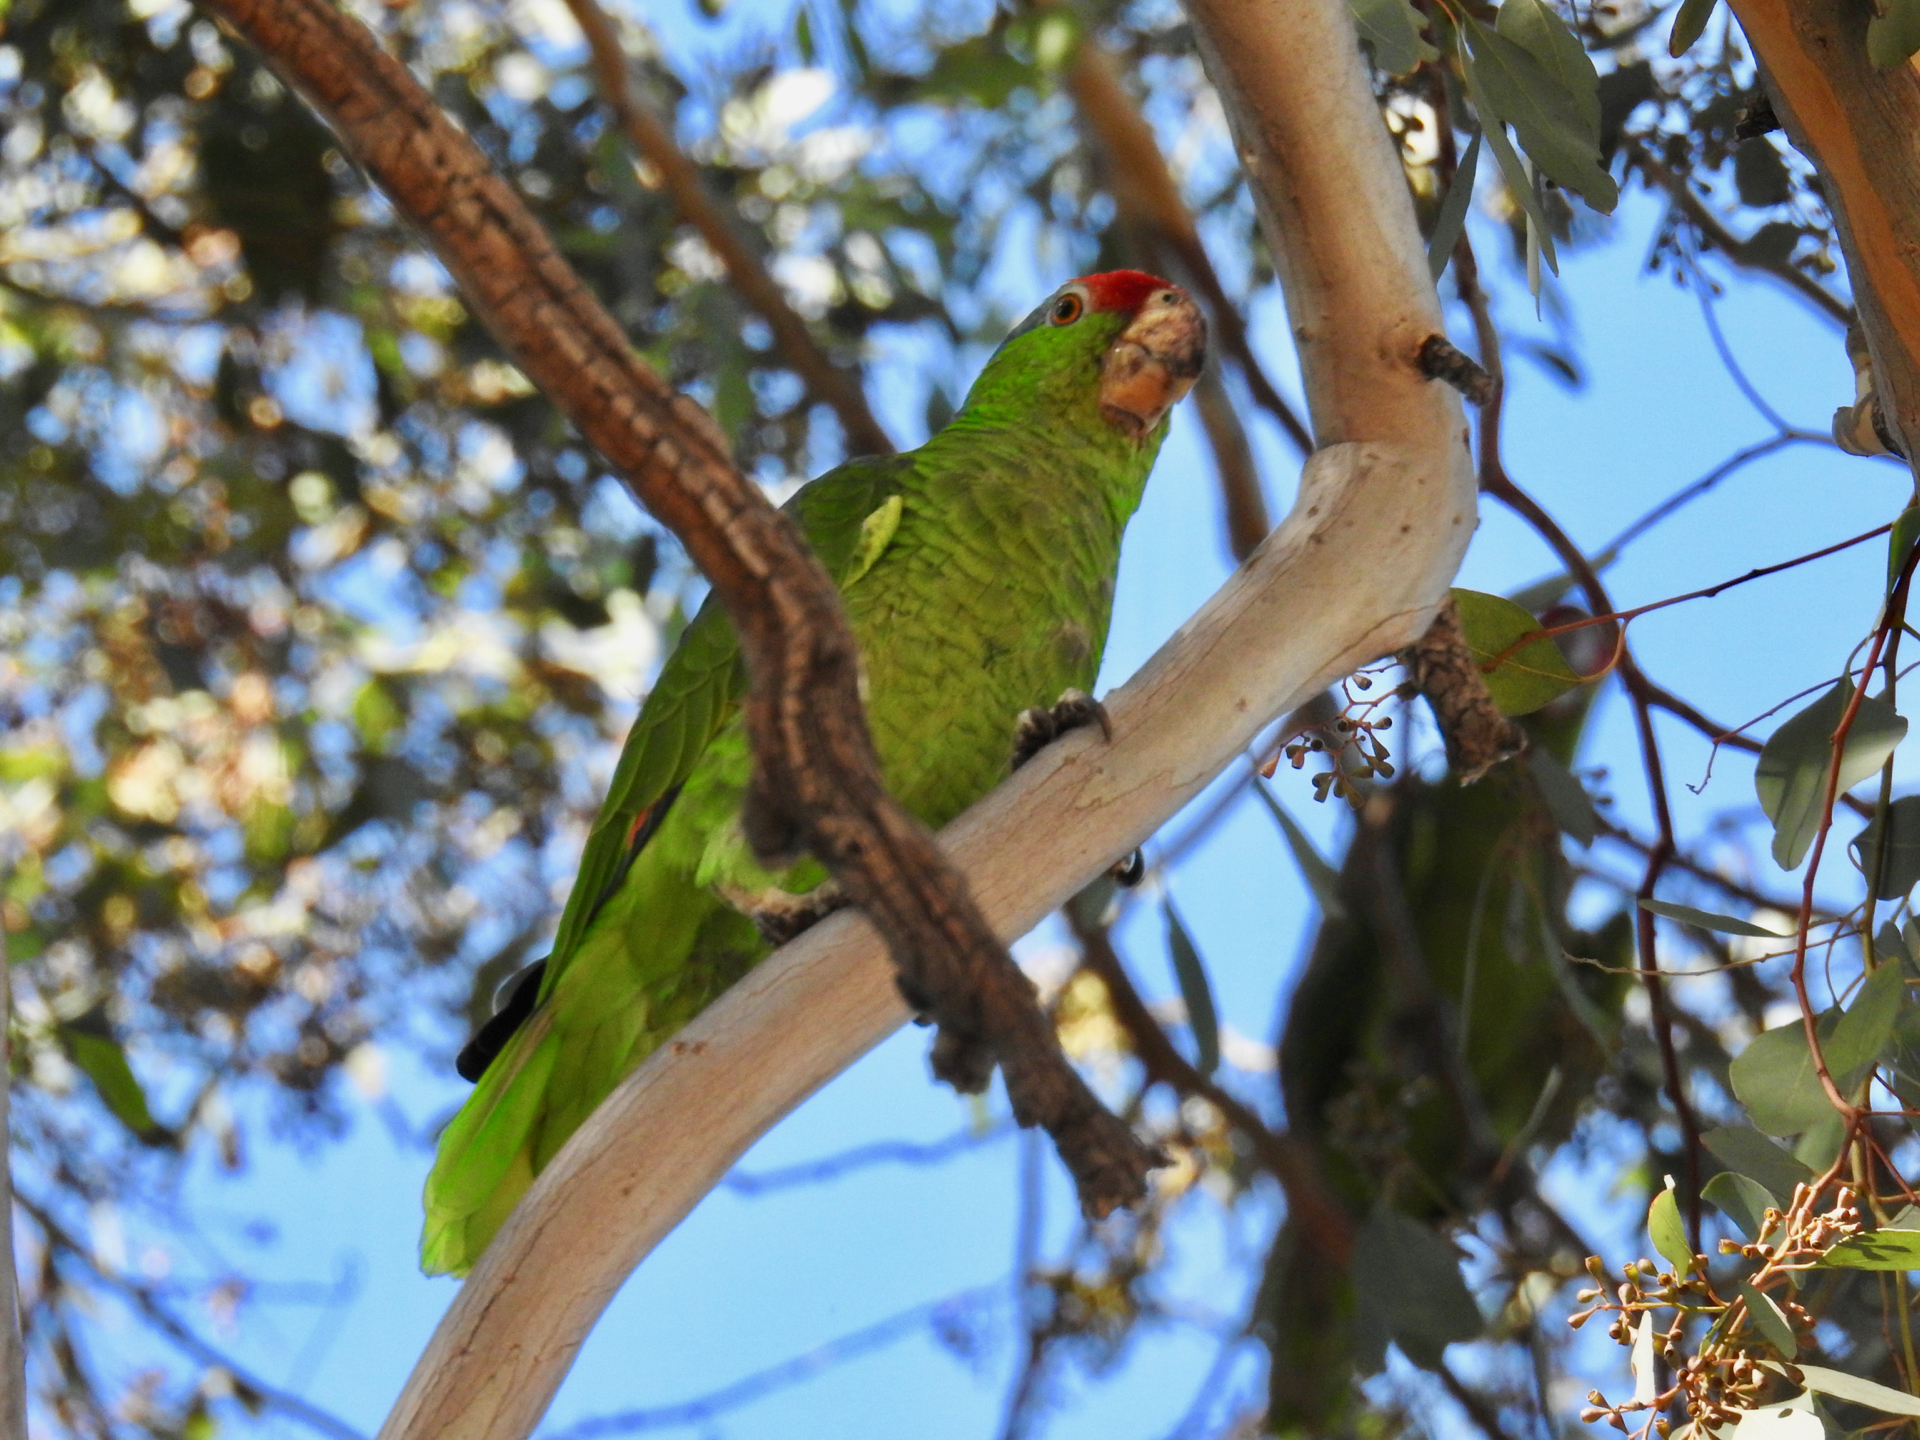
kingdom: Animalia
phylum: Chordata
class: Aves
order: Psittaciformes
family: Psittacidae
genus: Amazona
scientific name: Amazona viridigenalis
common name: Red-crowned amazon
